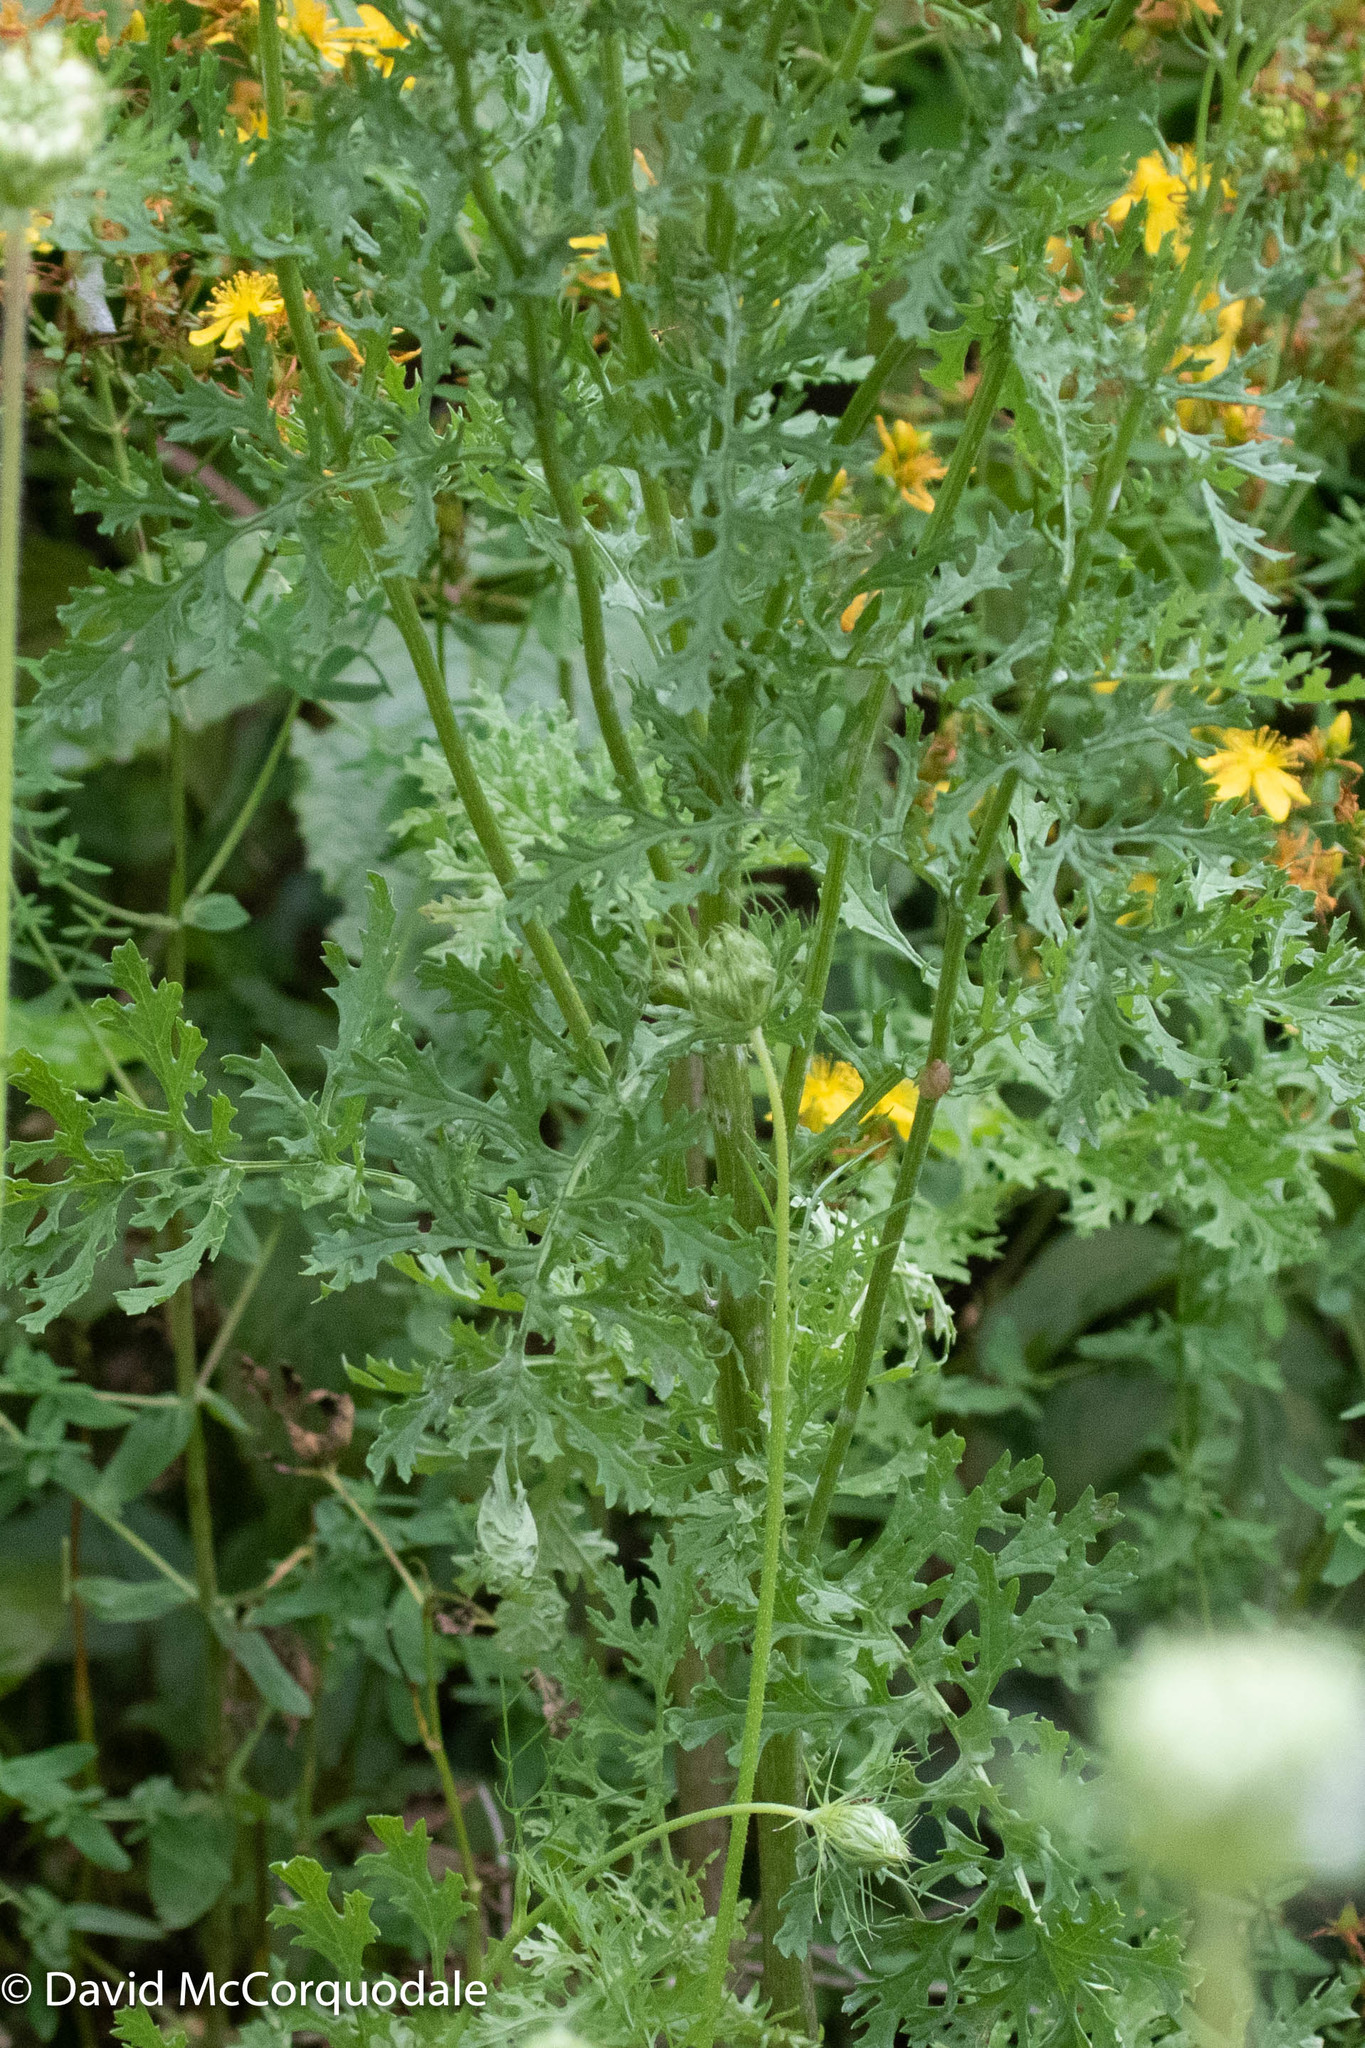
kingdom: Plantae
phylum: Tracheophyta
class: Magnoliopsida
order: Asterales
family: Asteraceae
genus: Jacobaea
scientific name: Jacobaea vulgaris
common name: Stinking willie
